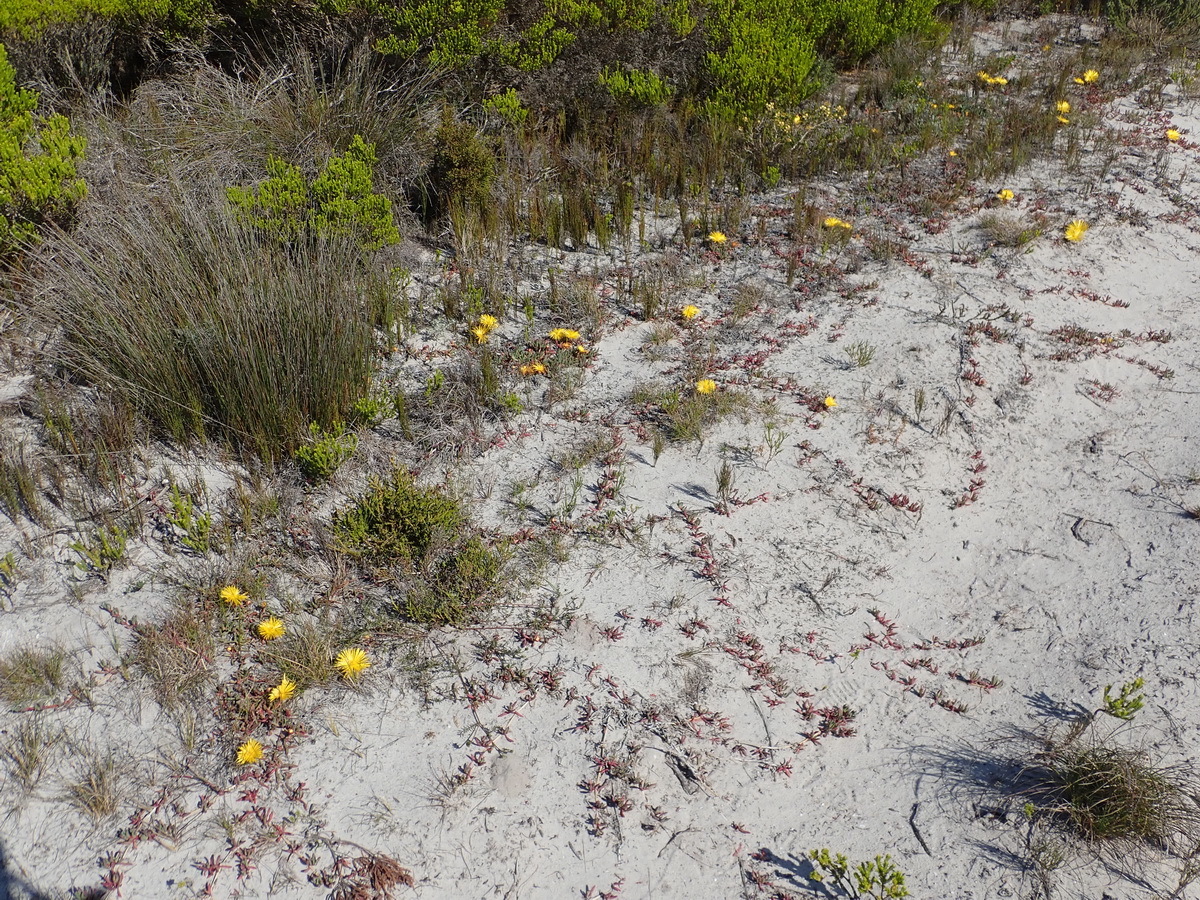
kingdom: Plantae
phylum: Tracheophyta
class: Magnoliopsida
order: Caryophyllales
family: Aizoaceae
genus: Jordaaniella
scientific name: Jordaaniella dubia
